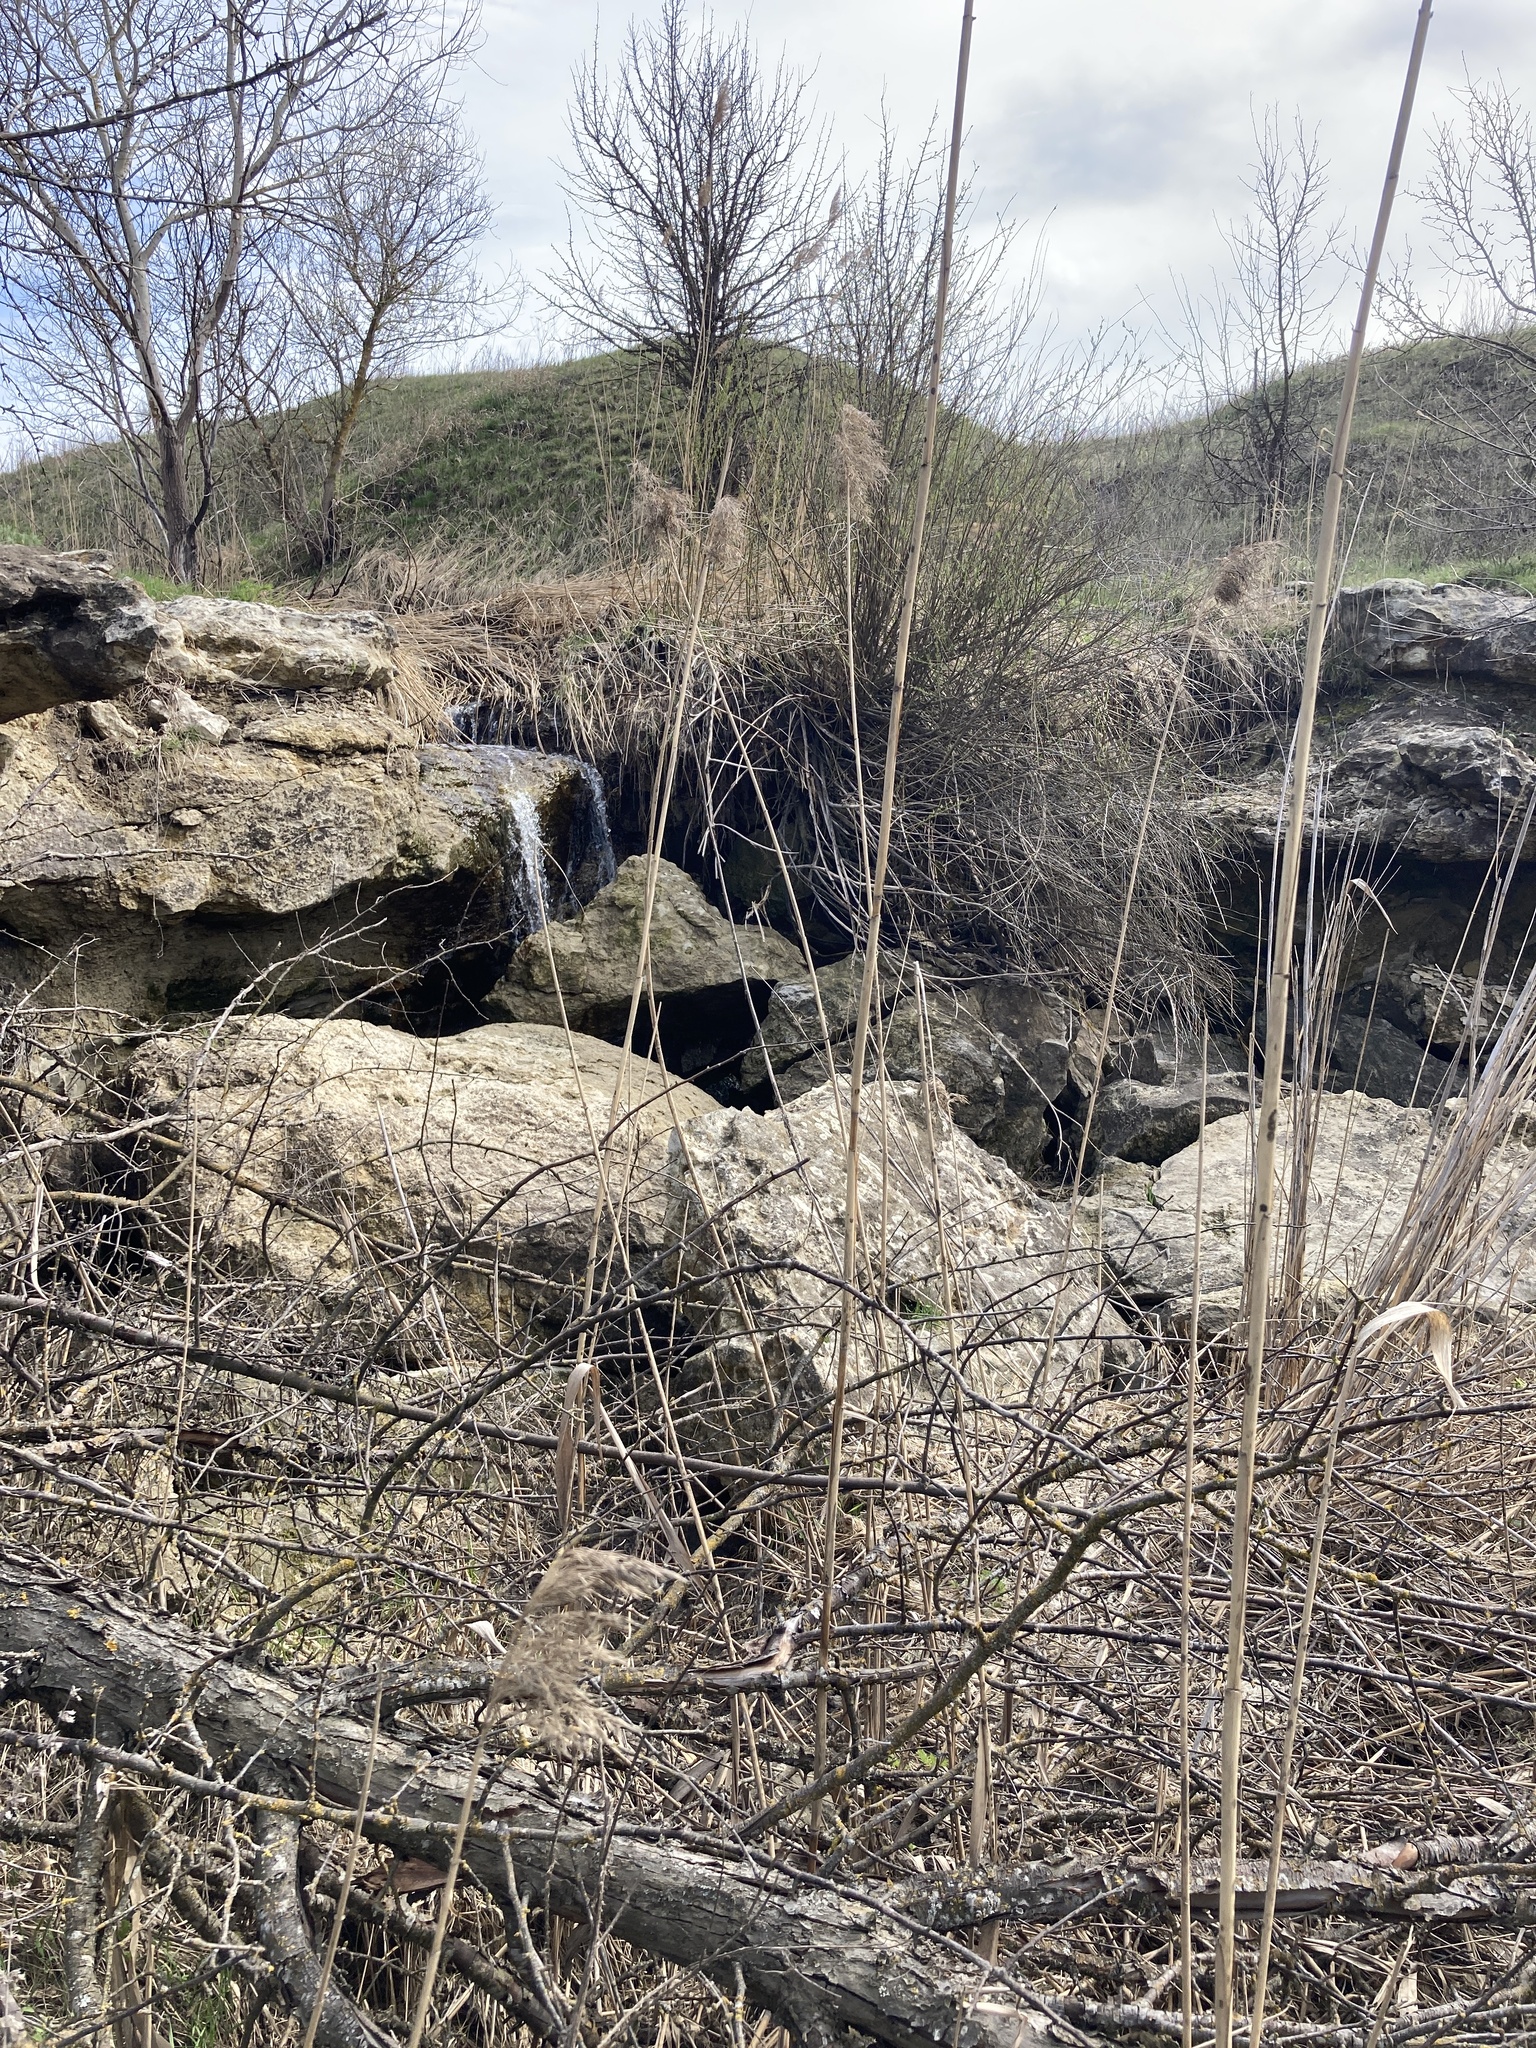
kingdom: Plantae
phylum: Tracheophyta
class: Liliopsida
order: Poales
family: Poaceae
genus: Phragmites
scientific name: Phragmites australis
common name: Common reed
